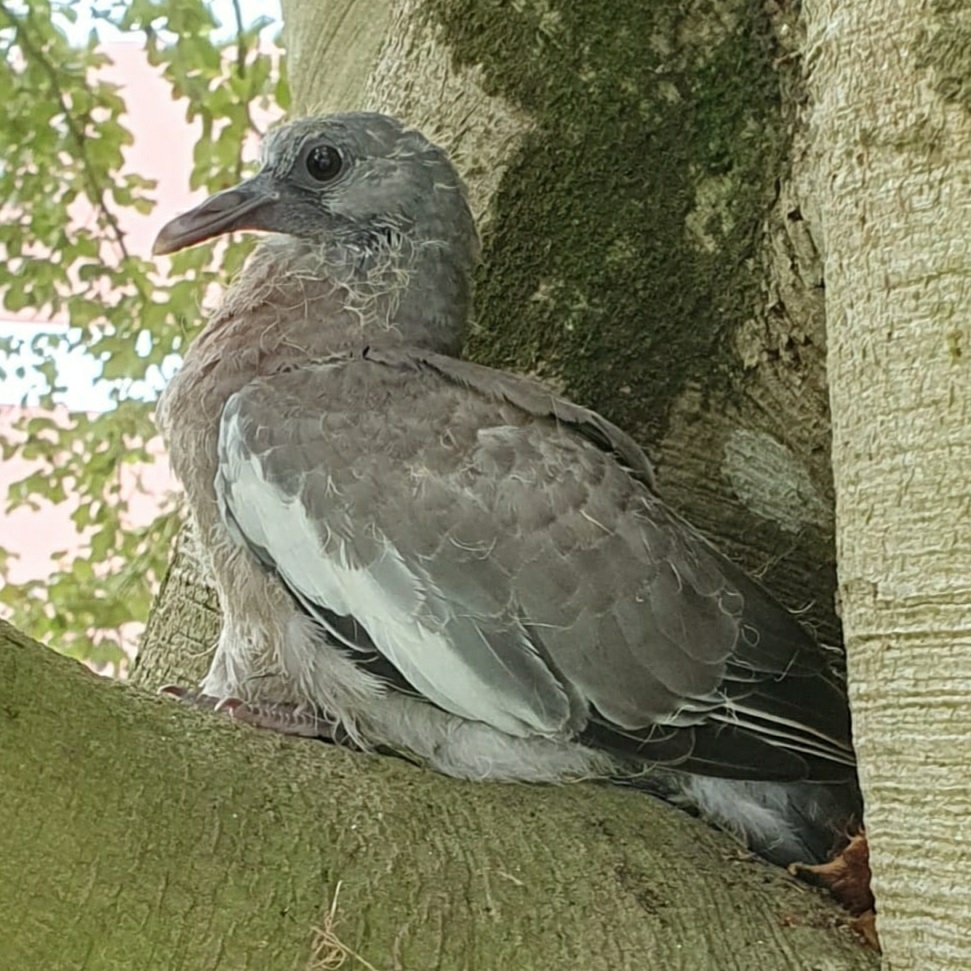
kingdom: Animalia
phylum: Chordata
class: Aves
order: Columbiformes
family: Columbidae
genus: Columba
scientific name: Columba palumbus
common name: Common wood pigeon
